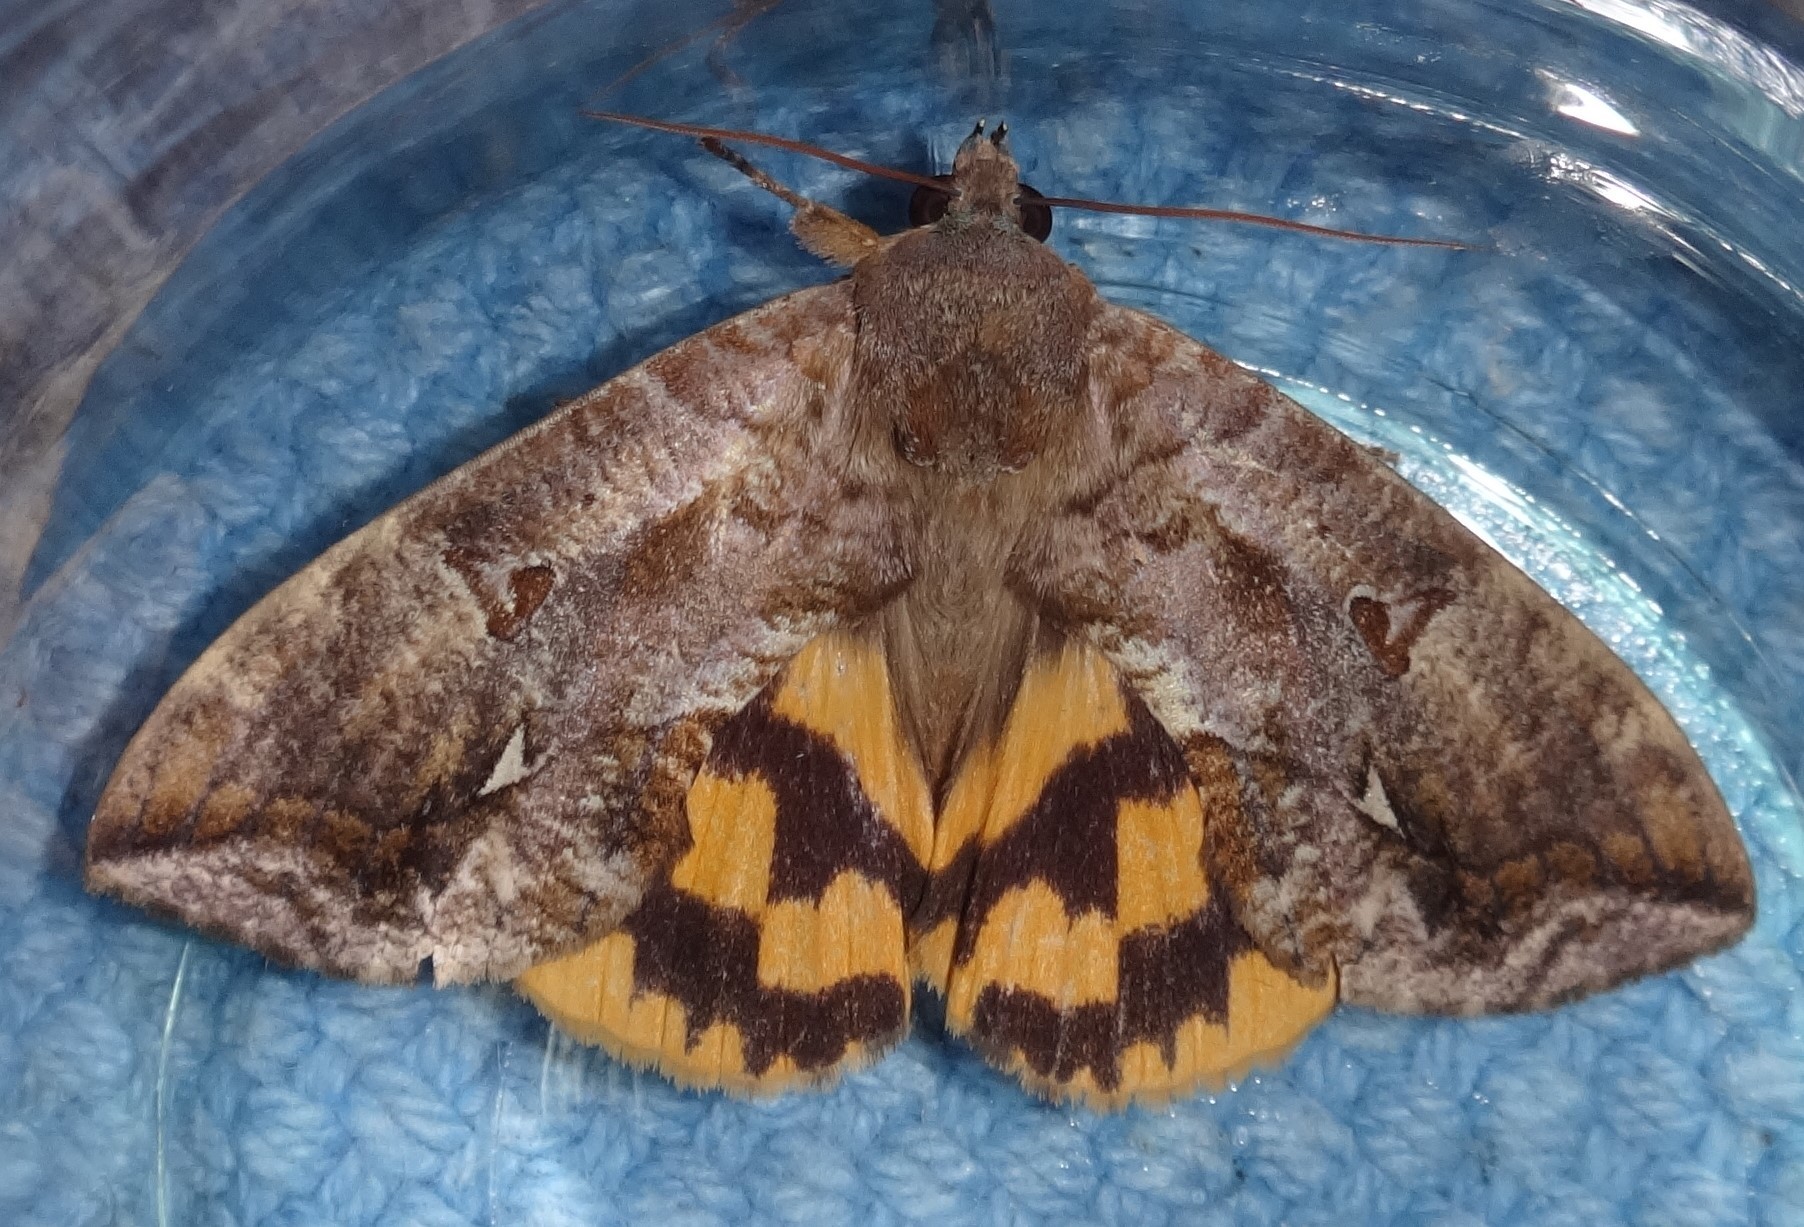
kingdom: Animalia
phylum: Arthropoda
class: Insecta
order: Lepidoptera
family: Erebidae
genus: Eudocima
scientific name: Eudocima procus
